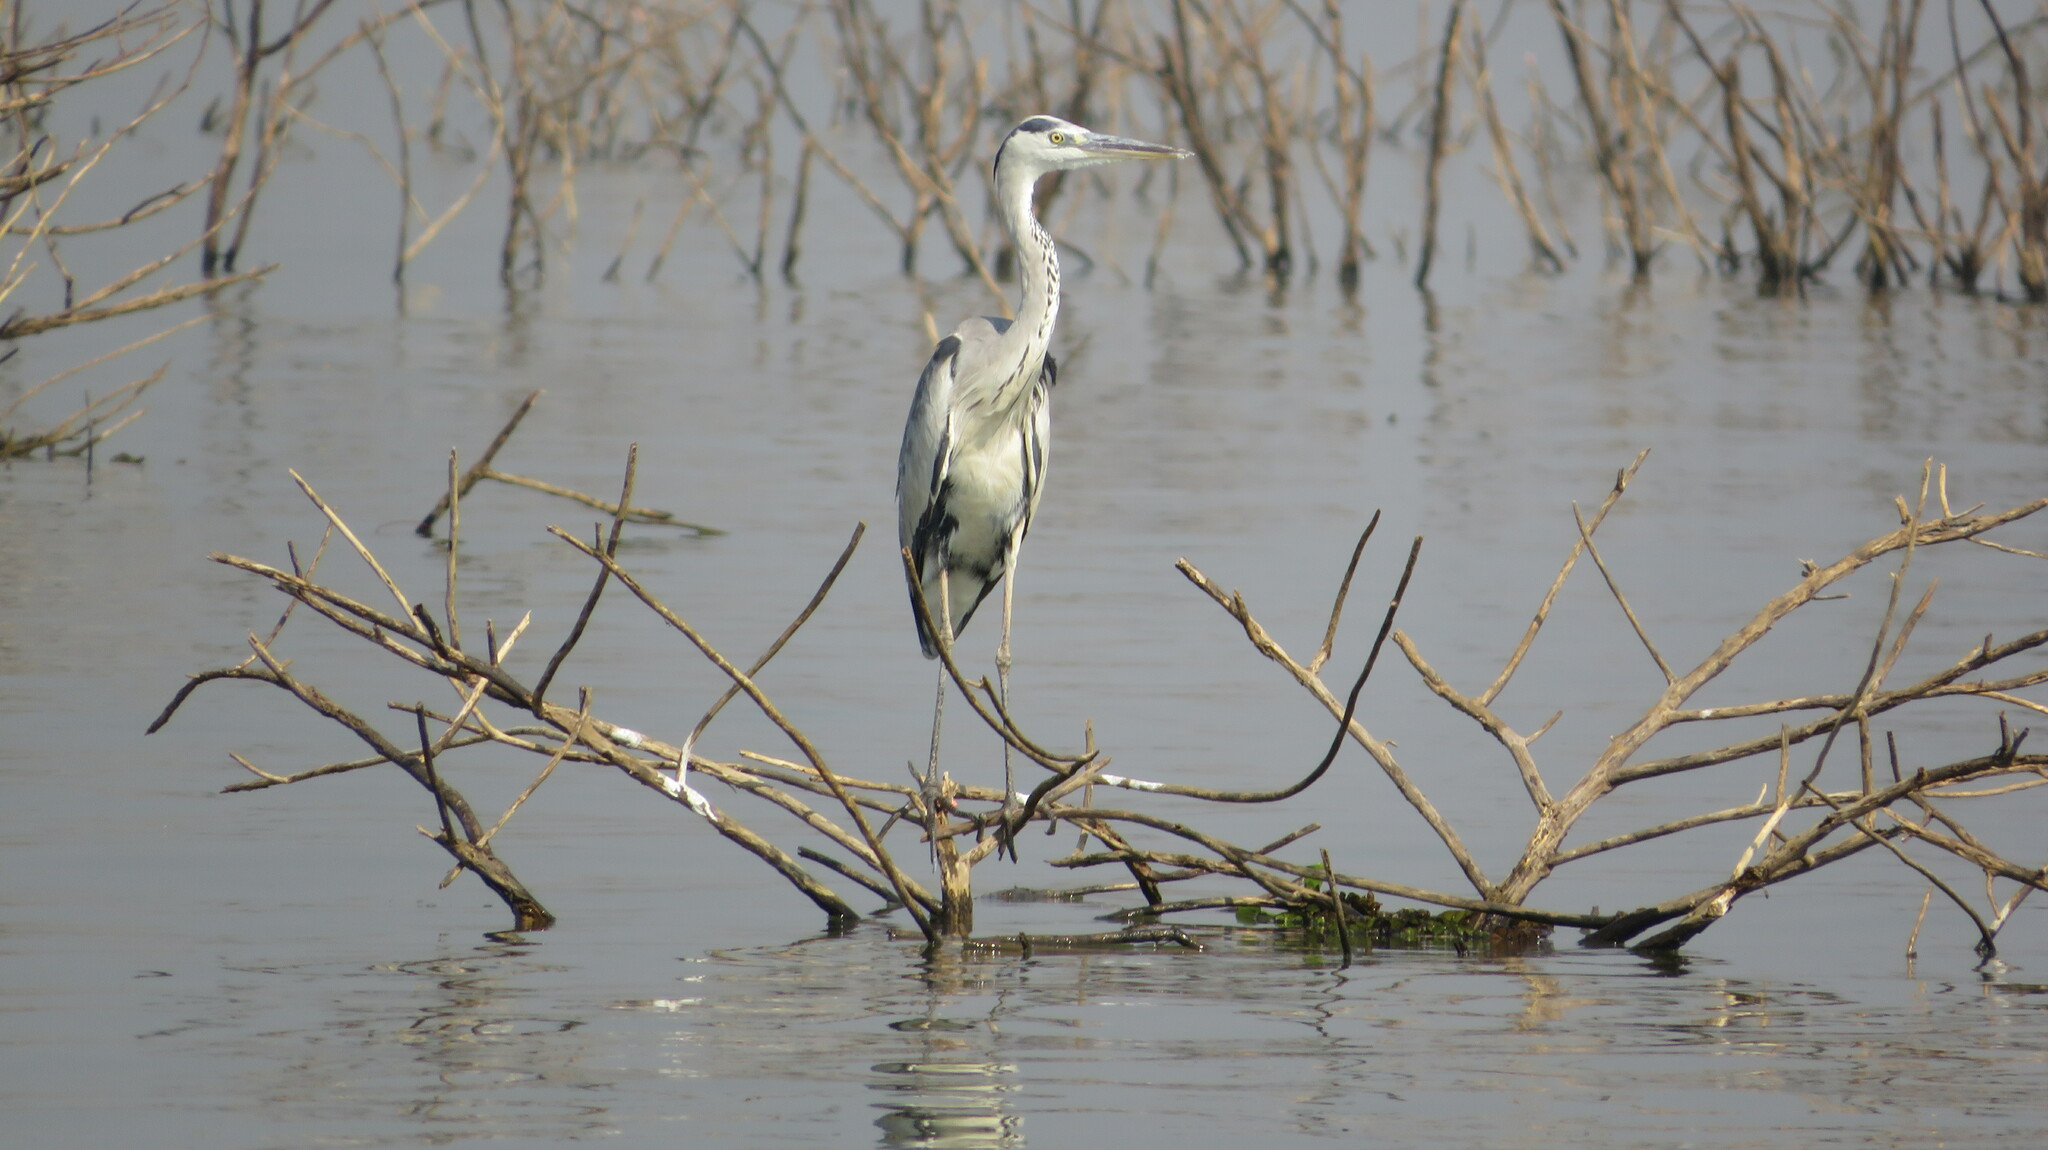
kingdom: Animalia
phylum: Chordata
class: Aves
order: Pelecaniformes
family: Ardeidae
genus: Ardea
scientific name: Ardea cinerea
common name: Grey heron
